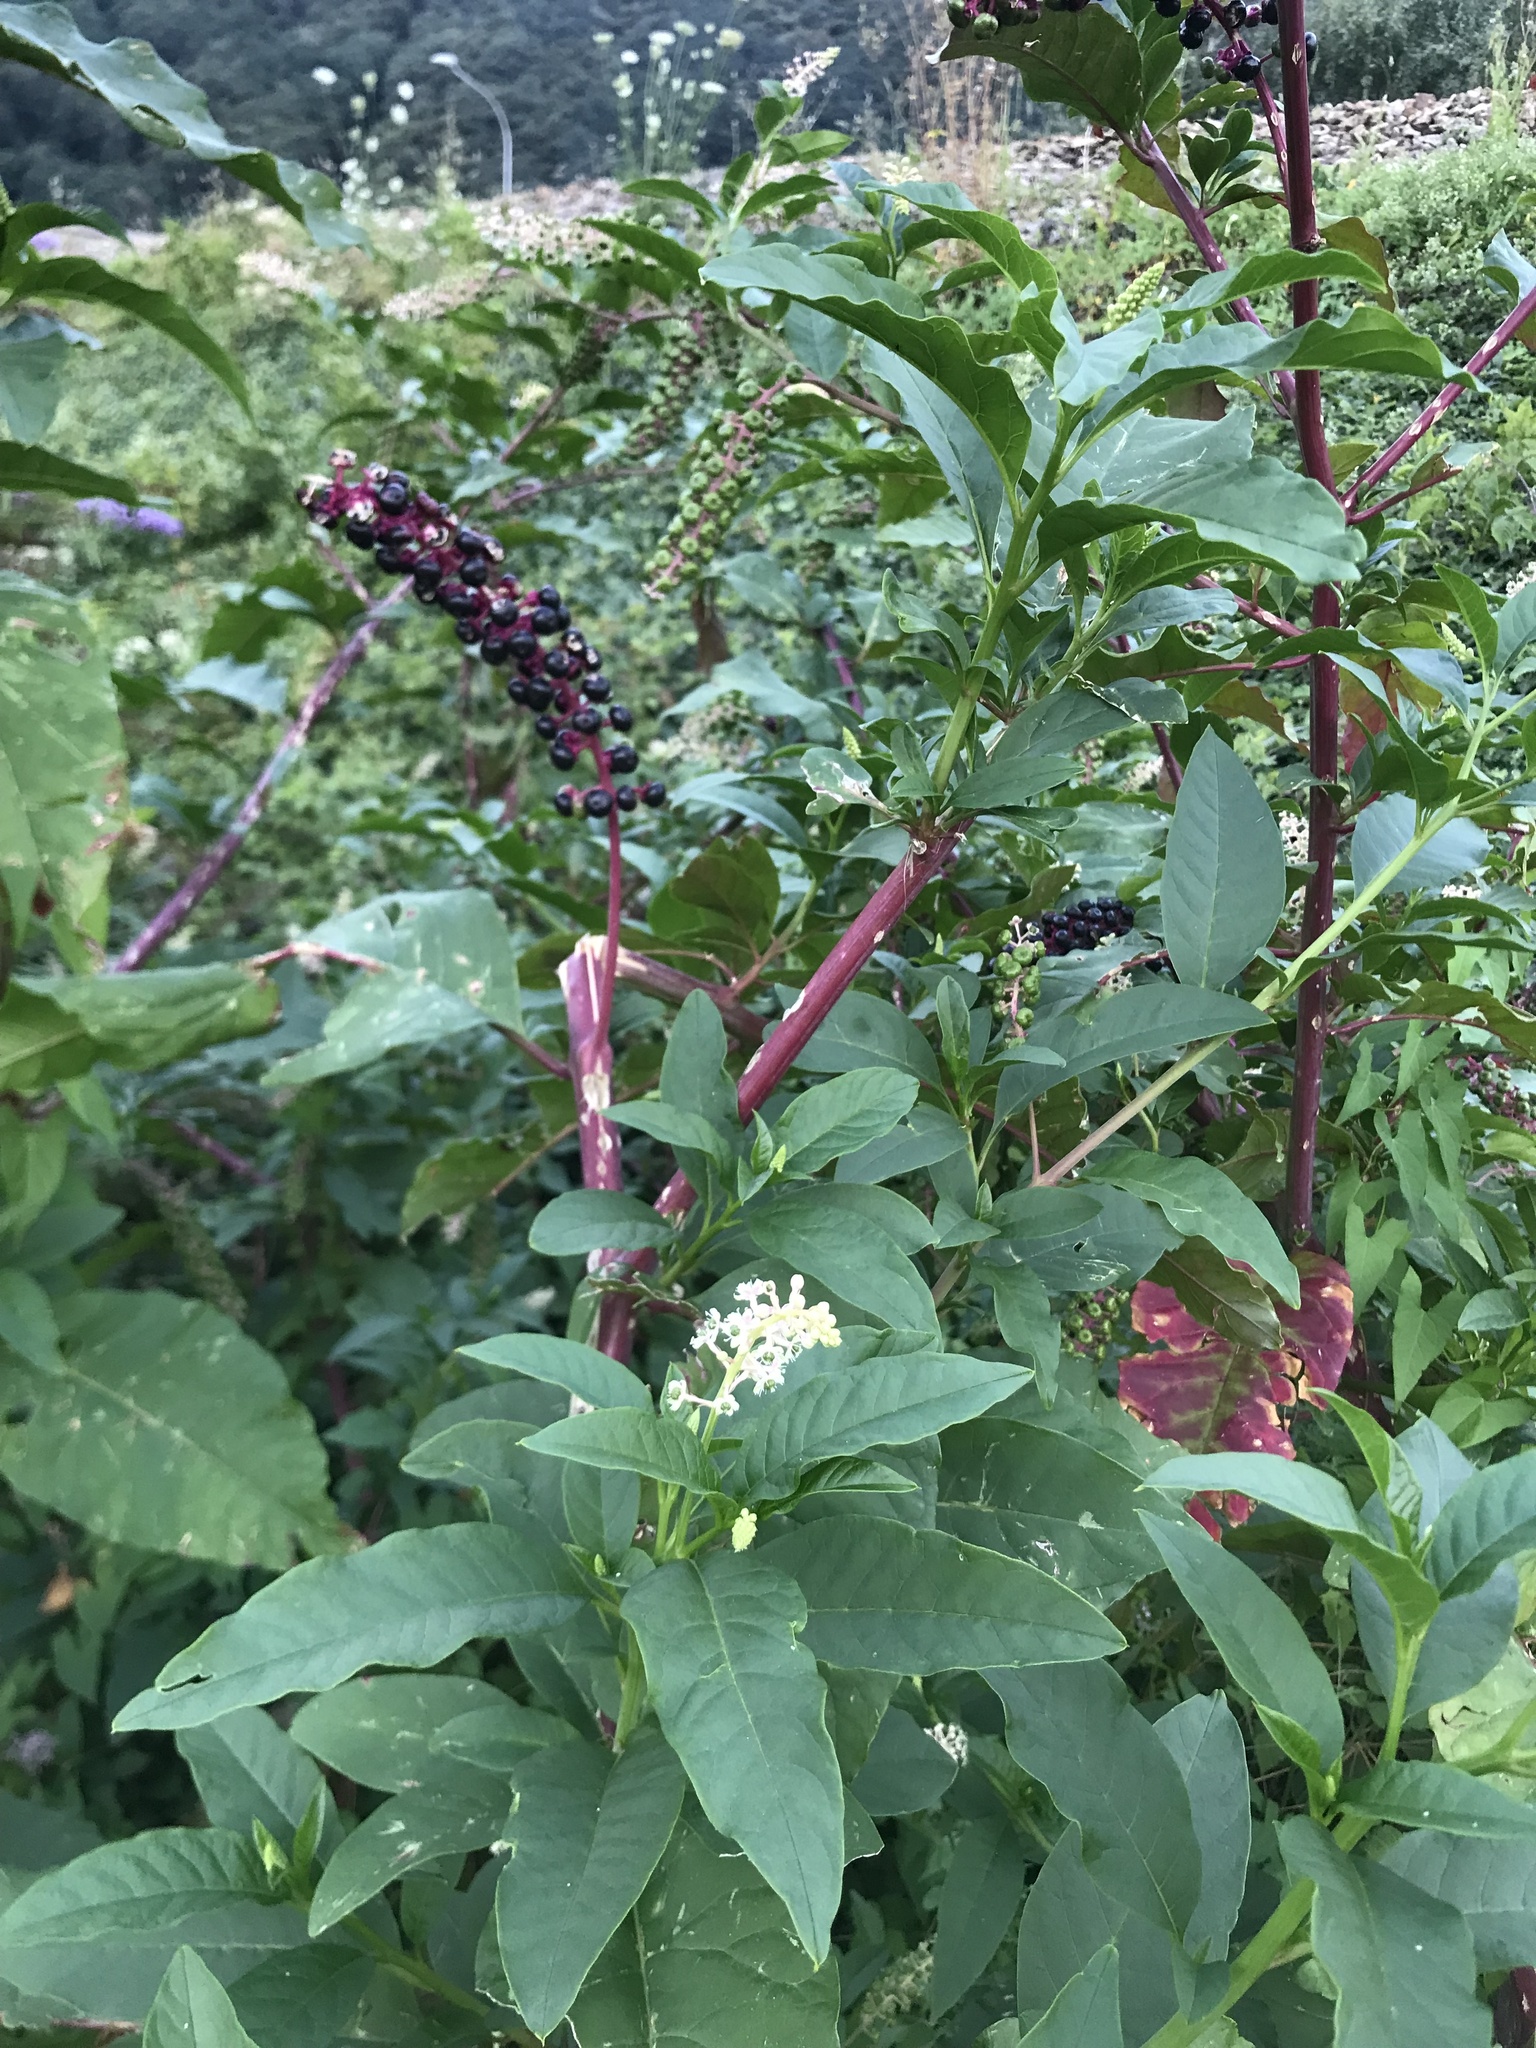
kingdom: Plantae
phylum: Tracheophyta
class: Magnoliopsida
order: Caryophyllales
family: Phytolaccaceae
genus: Phytolacca
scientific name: Phytolacca americana
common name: American pokeweed
